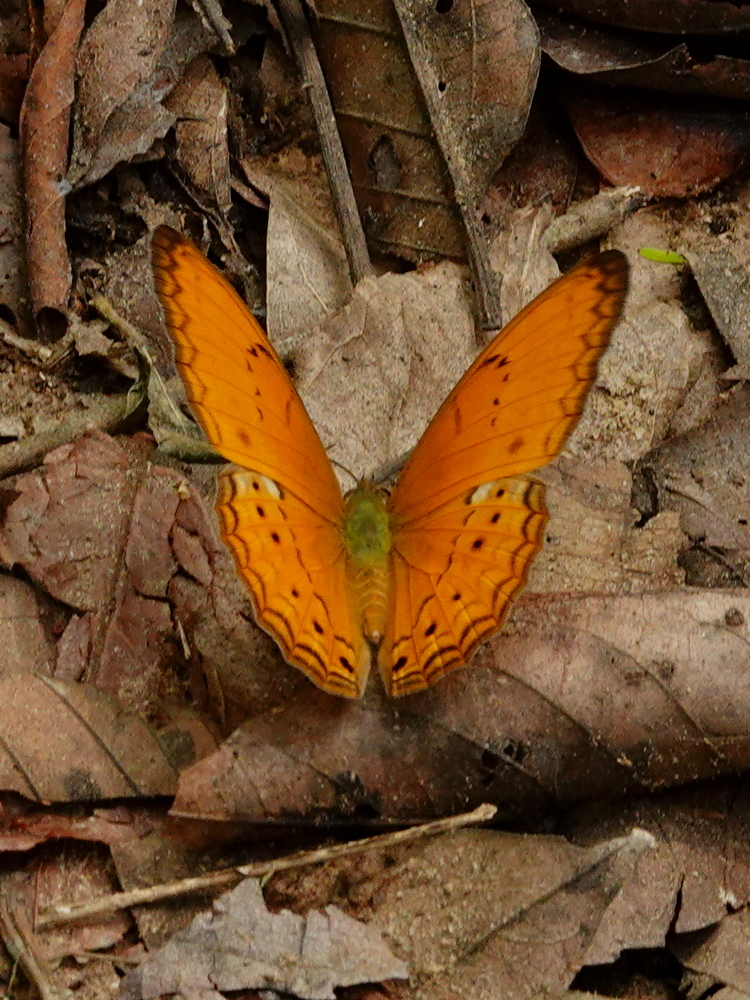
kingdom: Animalia
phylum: Arthropoda
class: Insecta
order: Lepidoptera
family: Nymphalidae
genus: Cirrochroa
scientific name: Cirrochroa tyche
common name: Common yeoman
